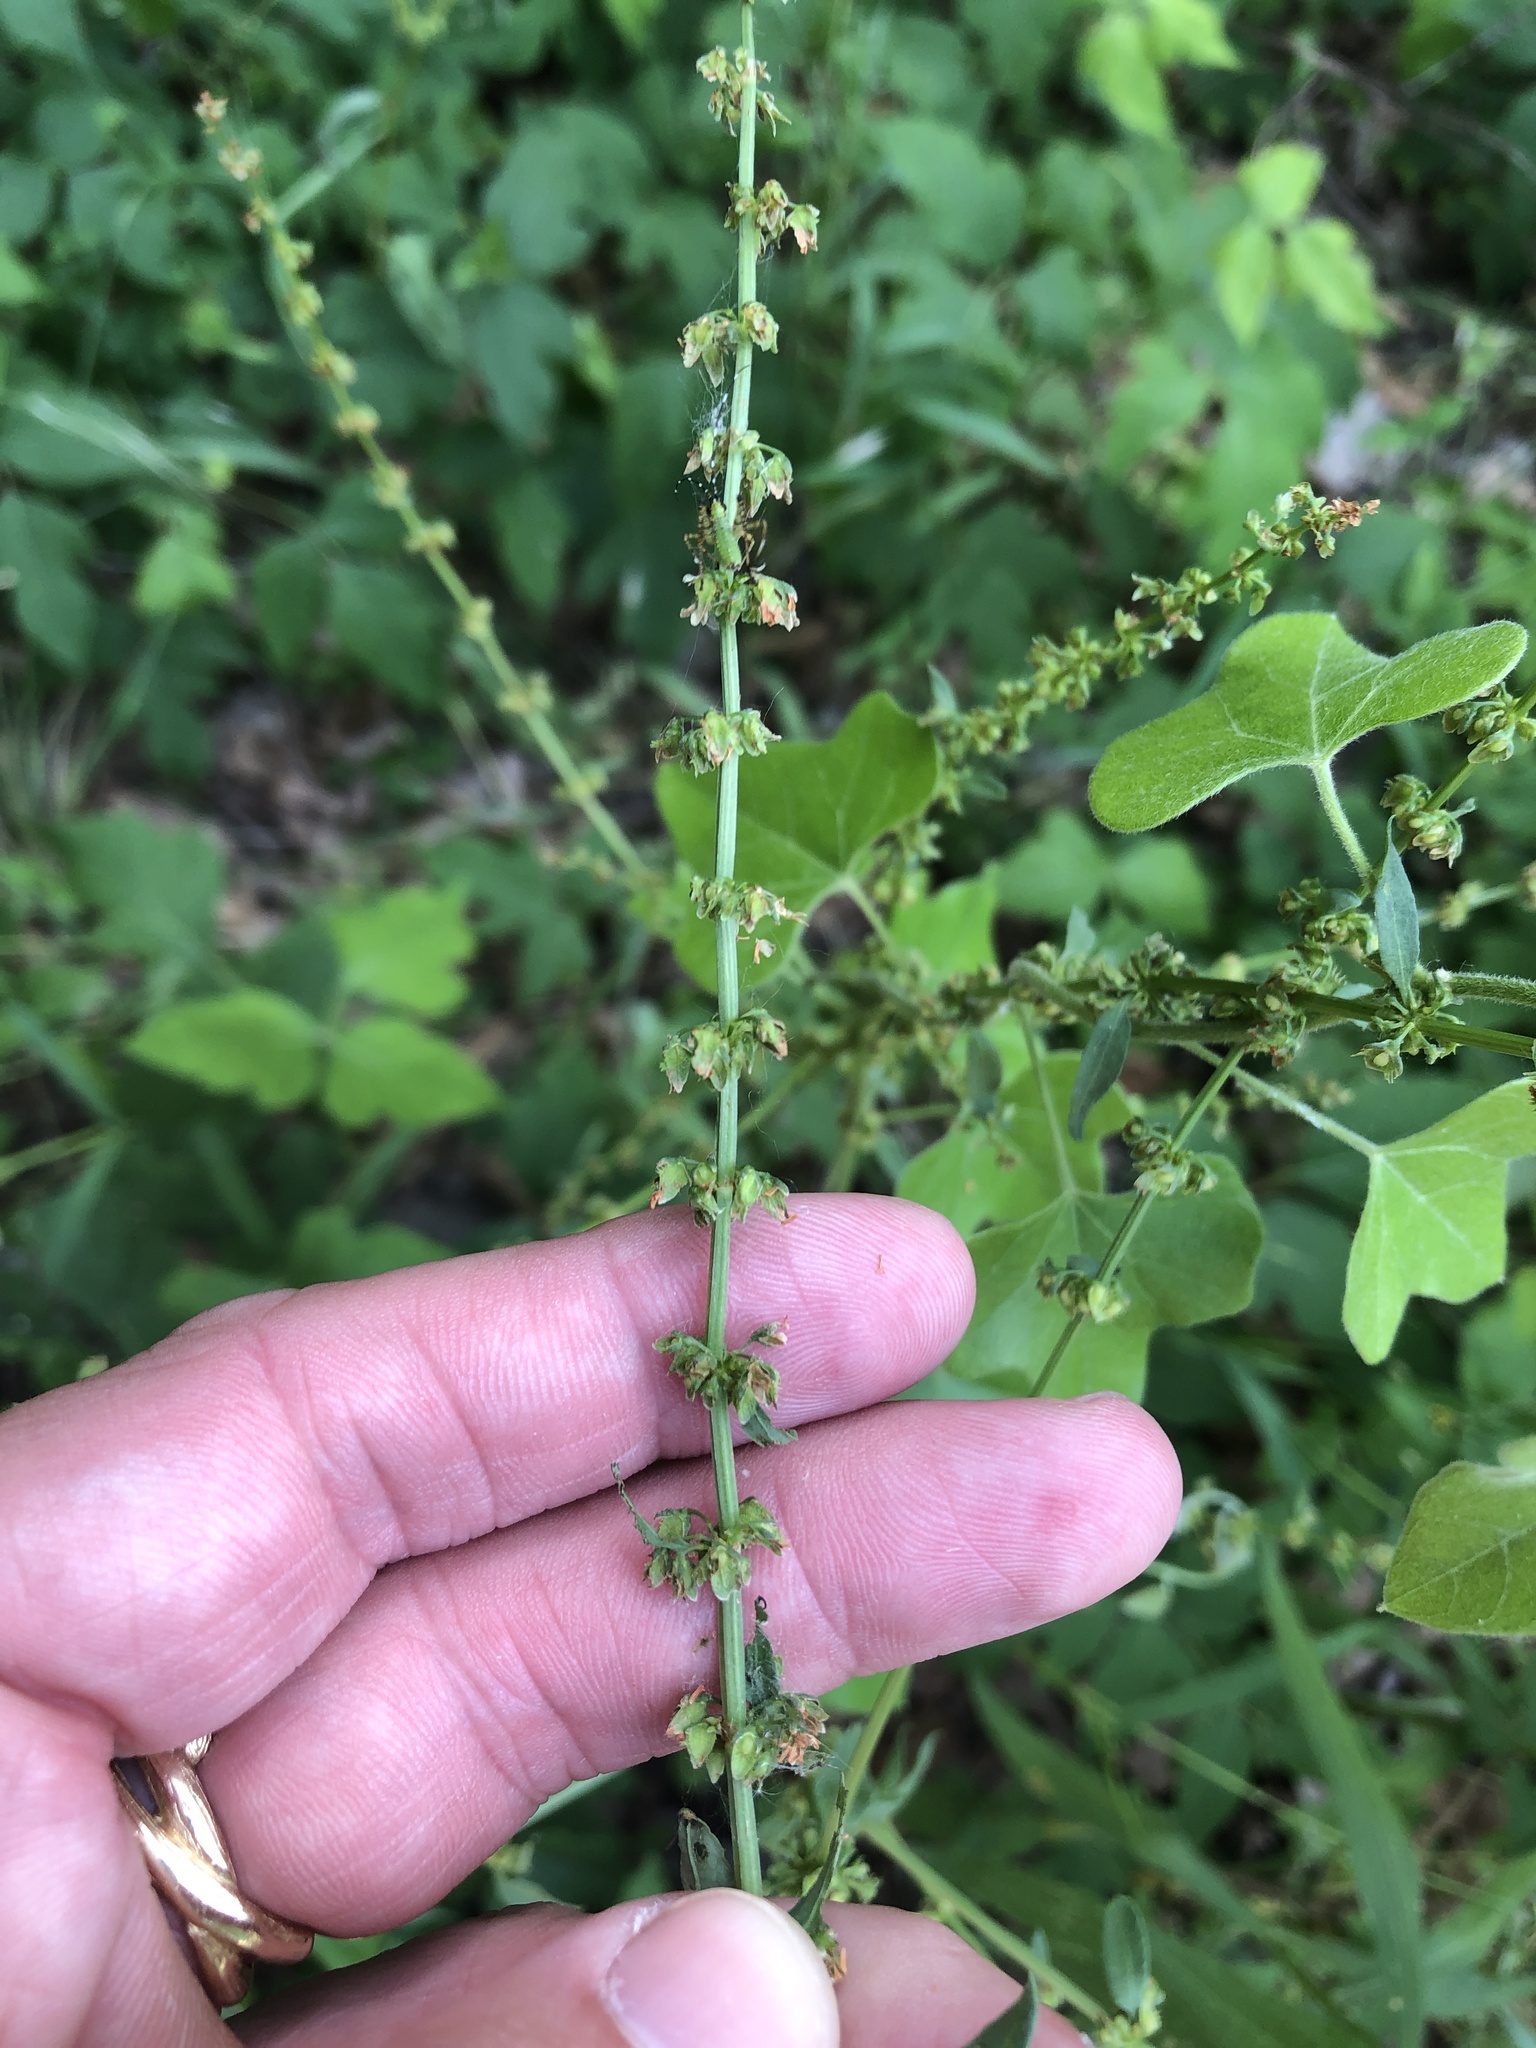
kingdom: Plantae
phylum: Tracheophyta
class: Magnoliopsida
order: Caryophyllales
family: Polygonaceae
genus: Rumex
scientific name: Rumex pulcher
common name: Fiddle dock
